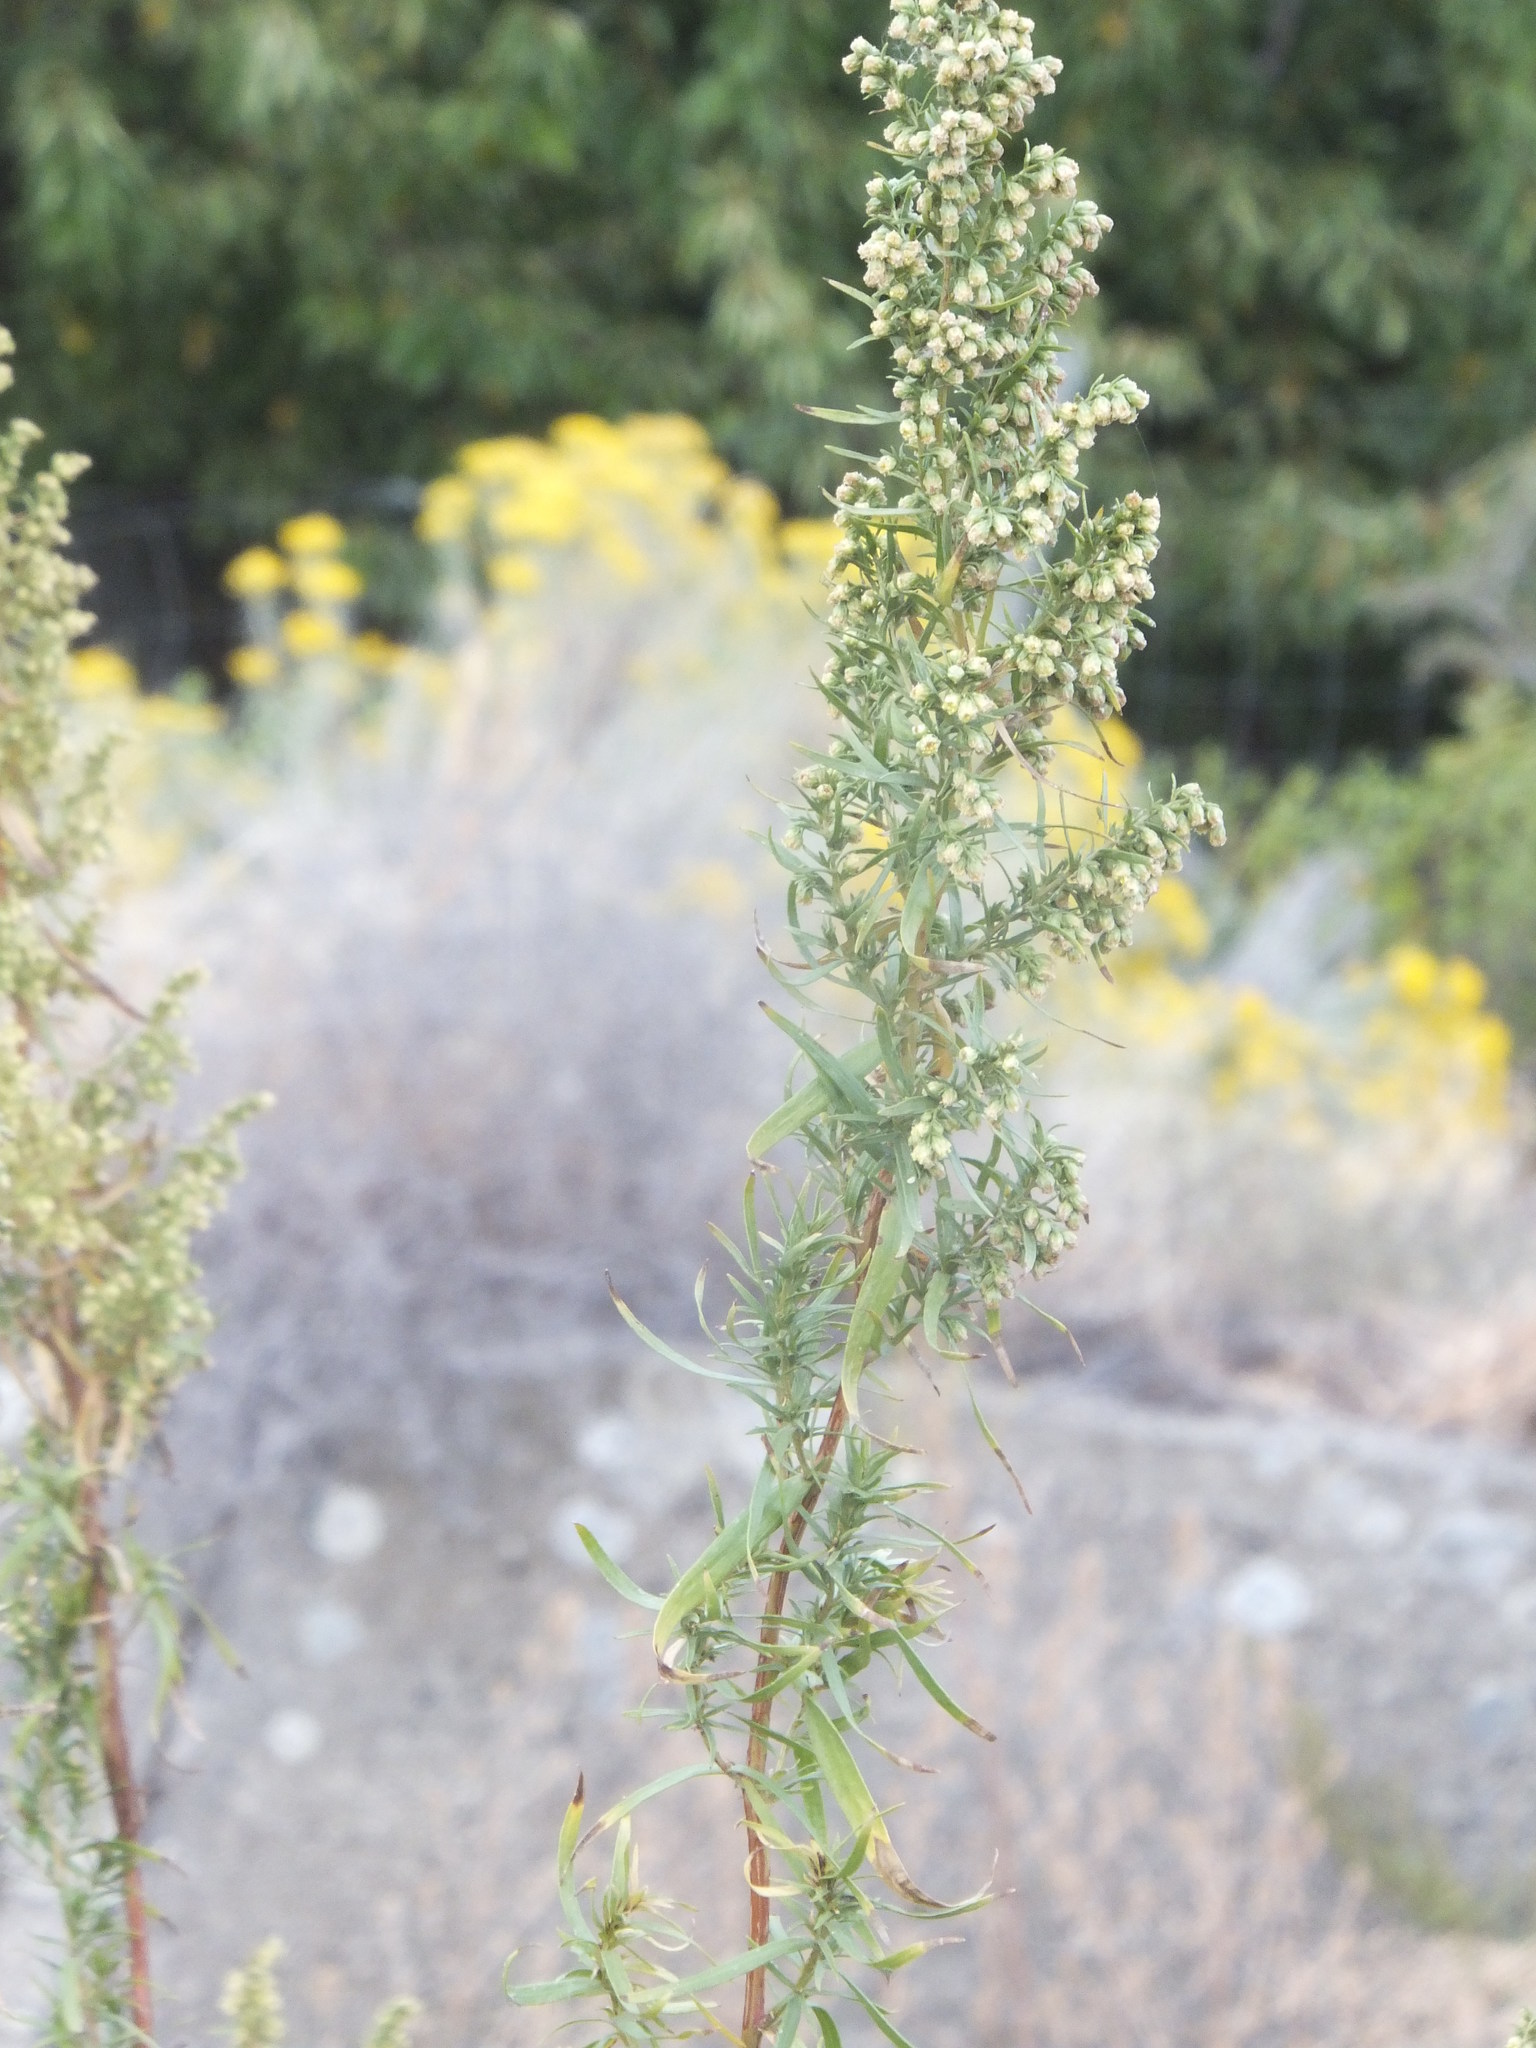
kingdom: Plantae
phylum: Tracheophyta
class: Magnoliopsida
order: Asterales
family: Asteraceae
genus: Artemisia
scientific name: Artemisia dracunculus
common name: Tarragon
